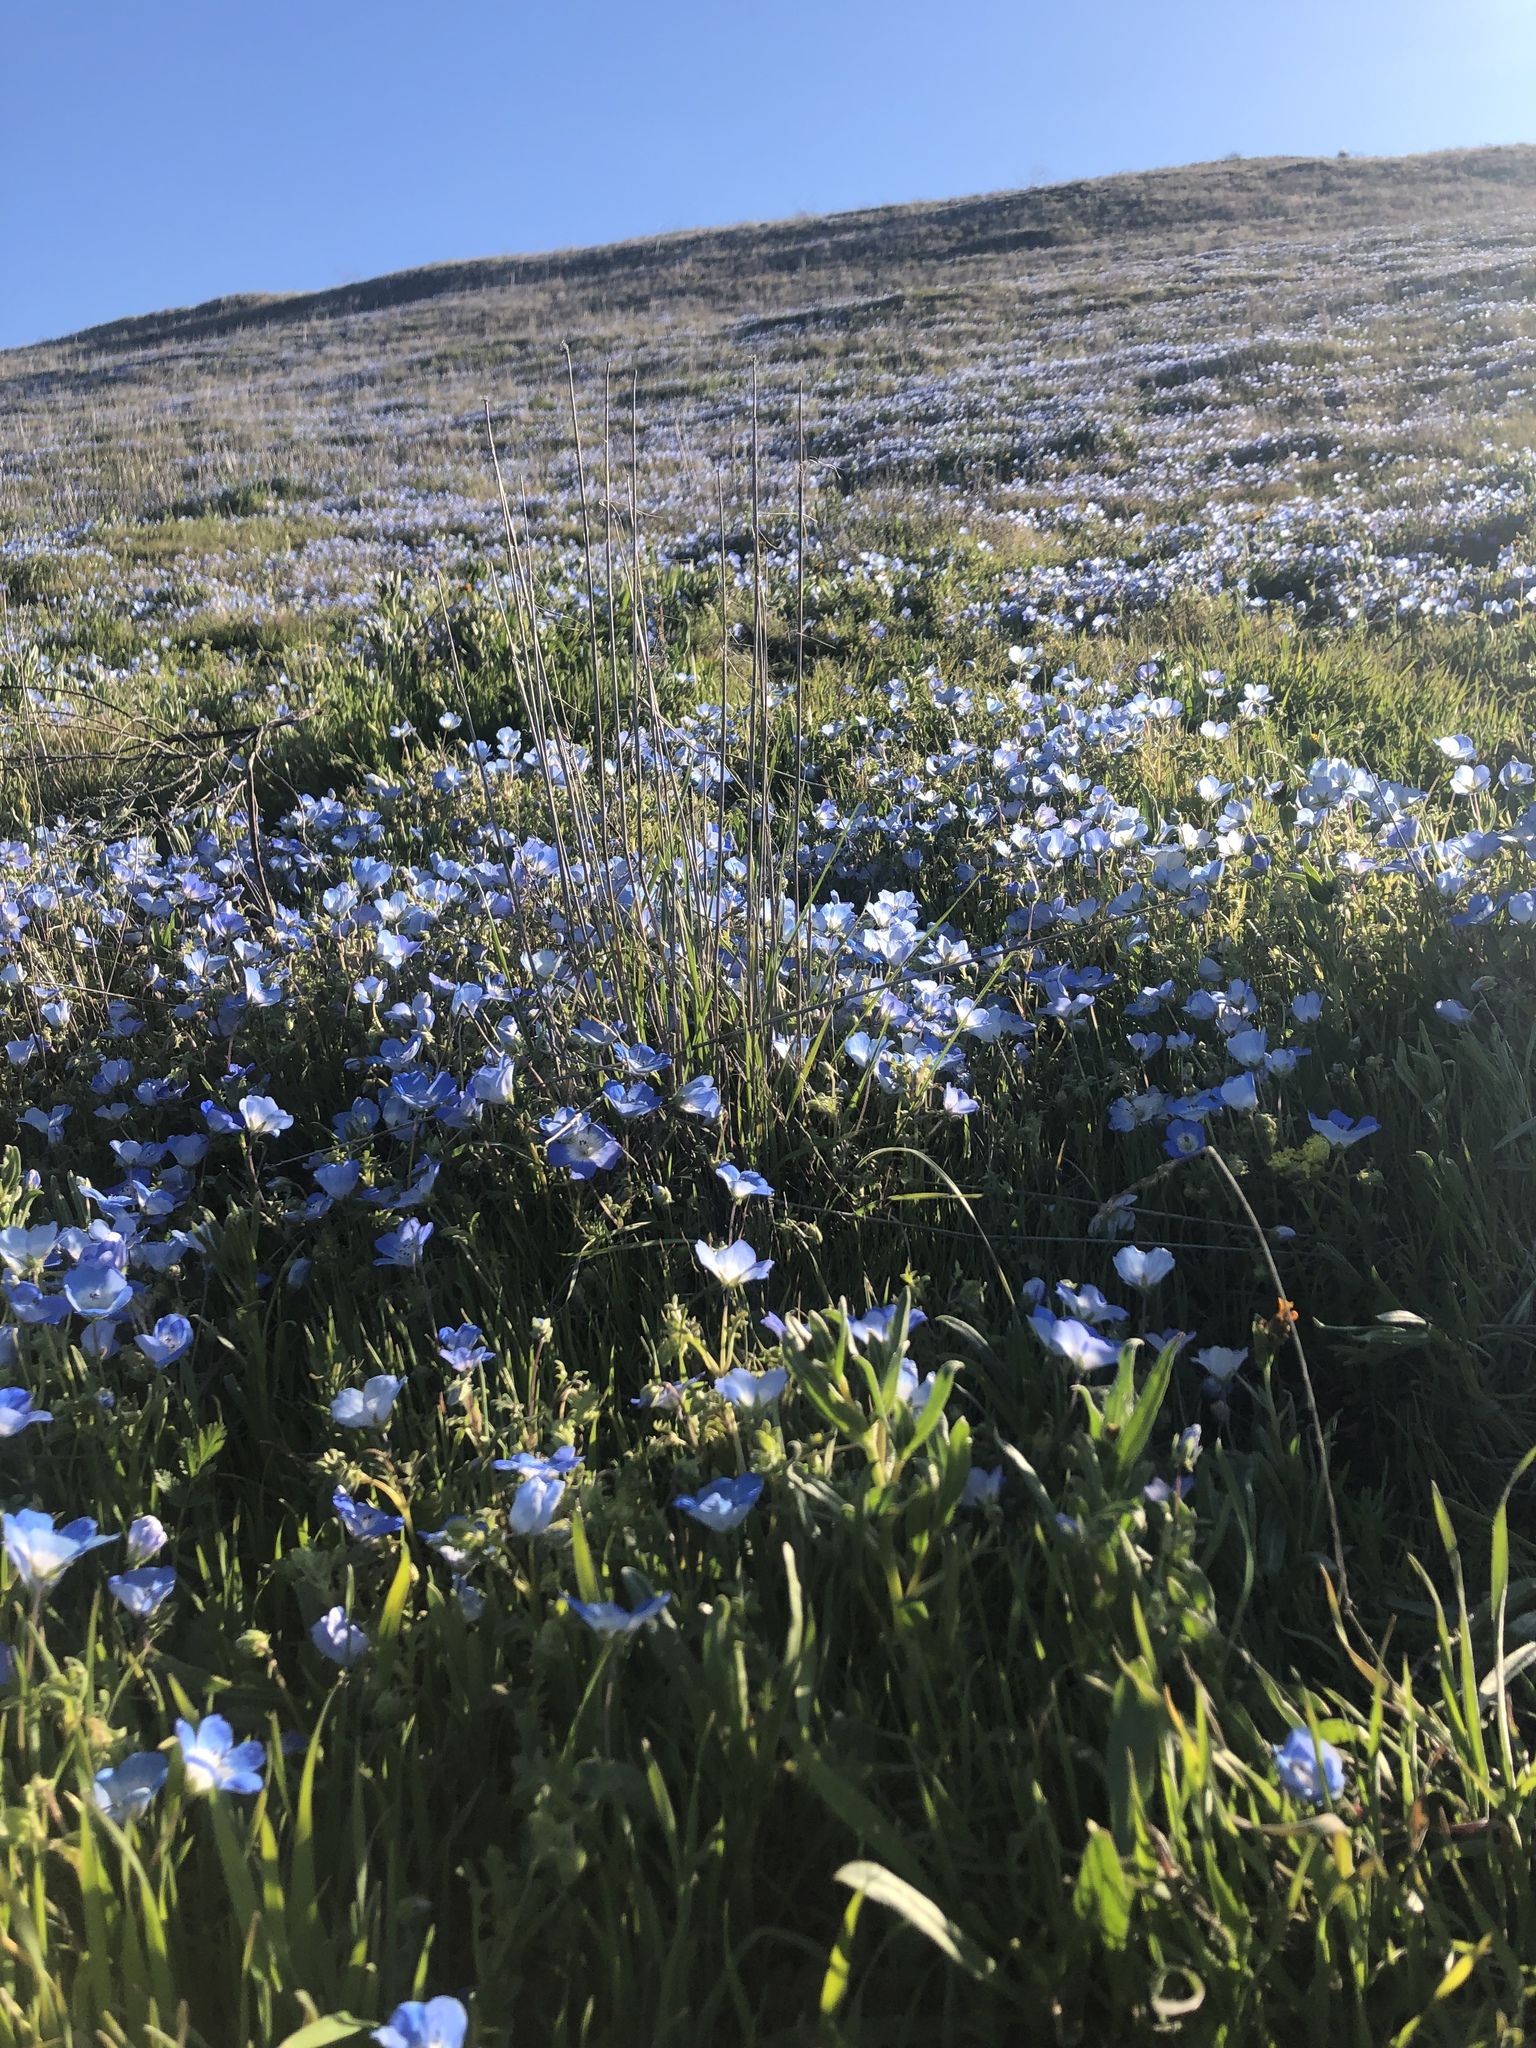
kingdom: Plantae
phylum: Tracheophyta
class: Magnoliopsida
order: Boraginales
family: Hydrophyllaceae
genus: Nemophila
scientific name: Nemophila menziesii
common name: Baby's-blue-eyes
